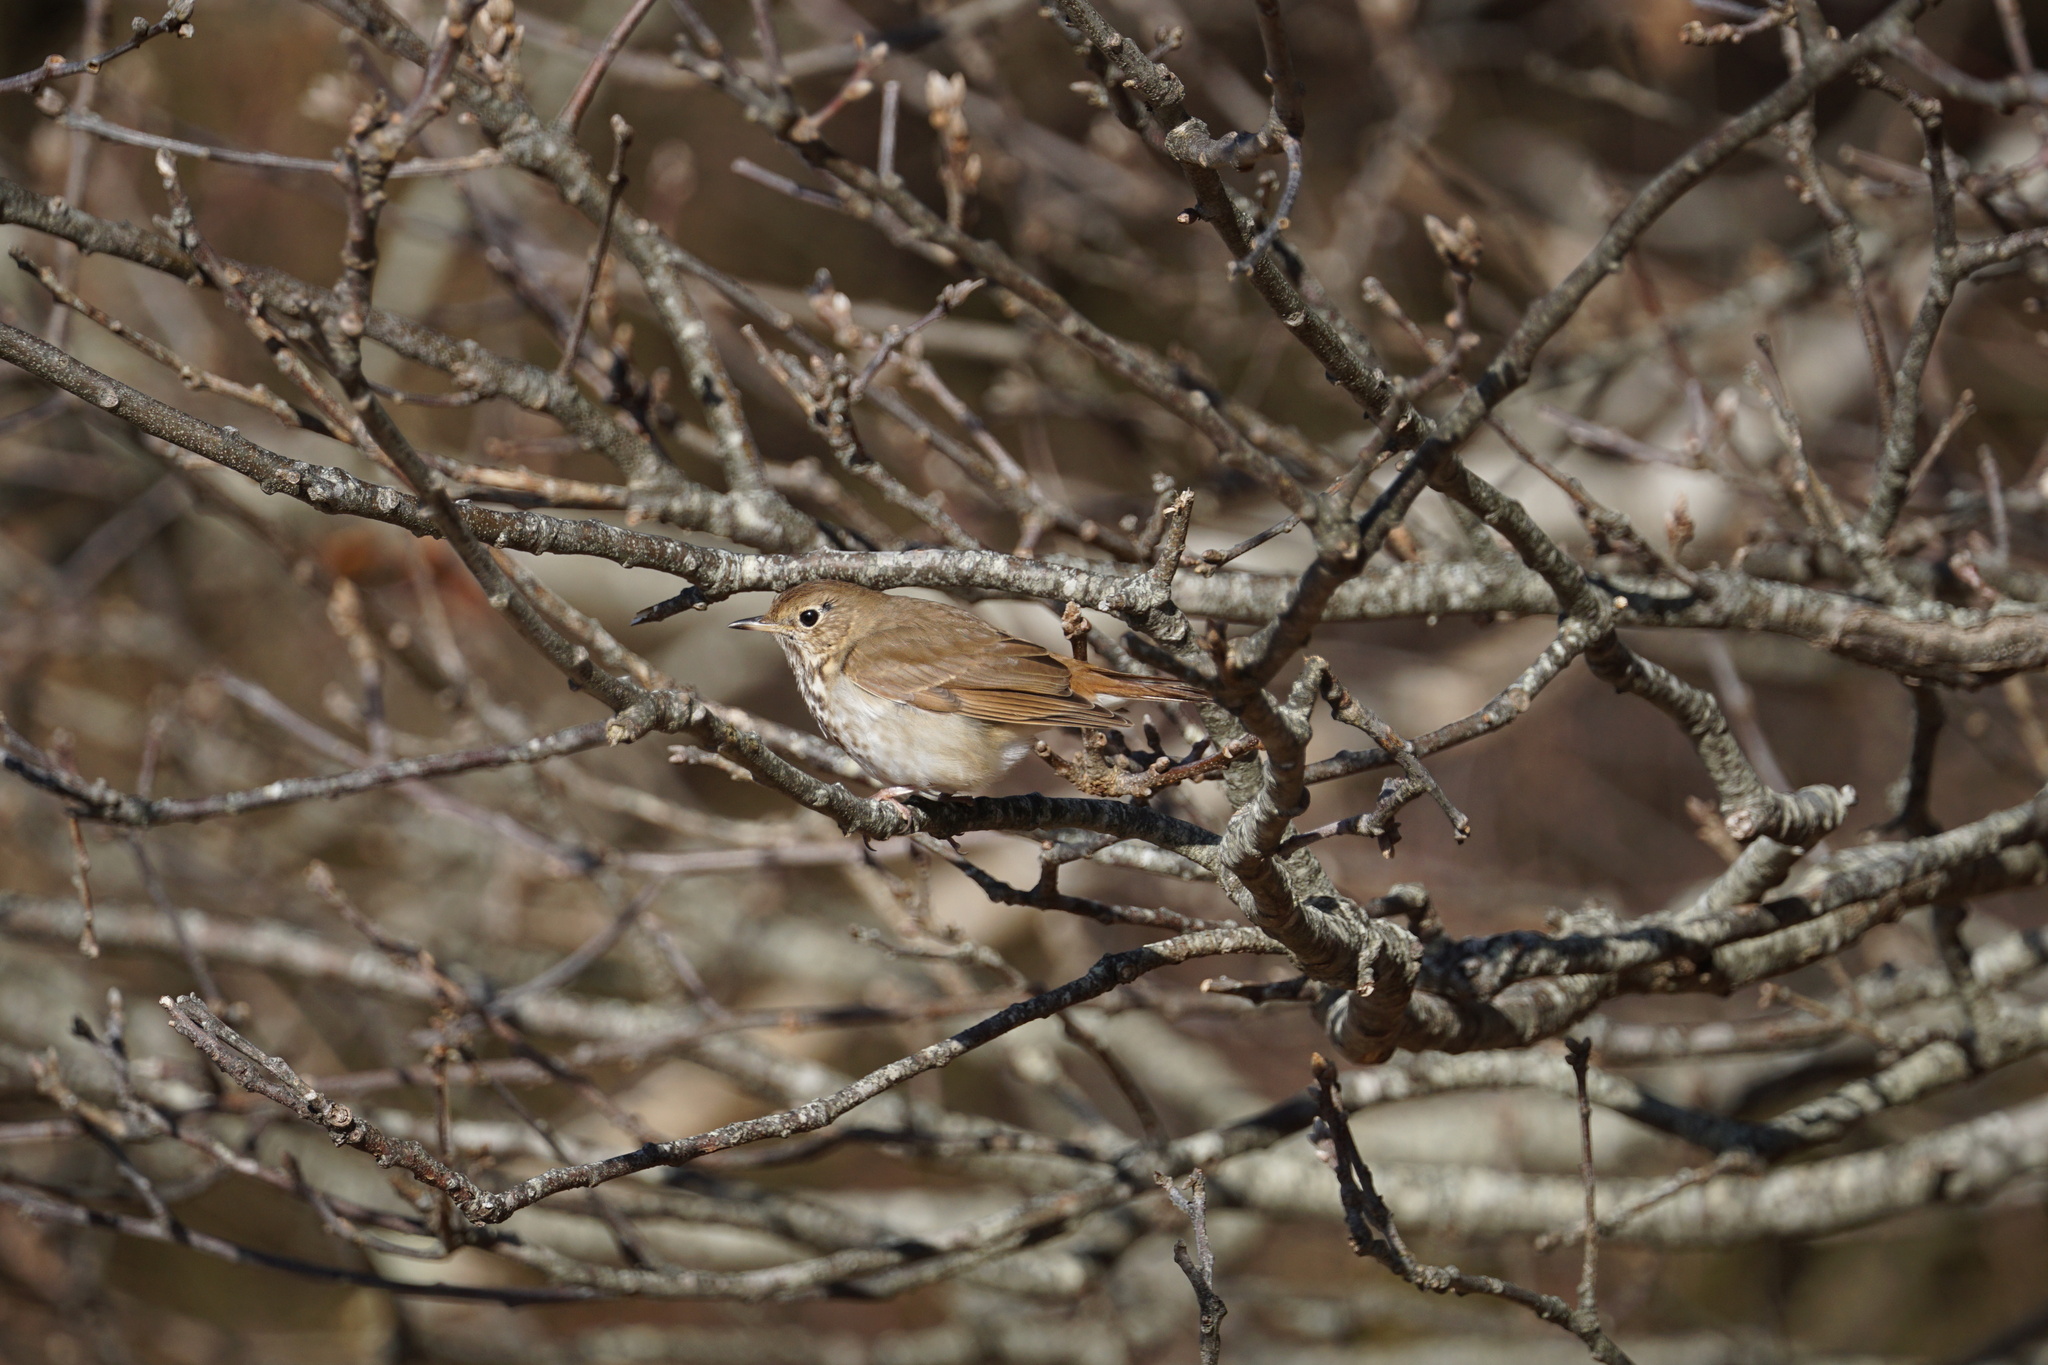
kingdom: Animalia
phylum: Chordata
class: Aves
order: Passeriformes
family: Turdidae
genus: Catharus
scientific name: Catharus guttatus
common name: Hermit thrush
